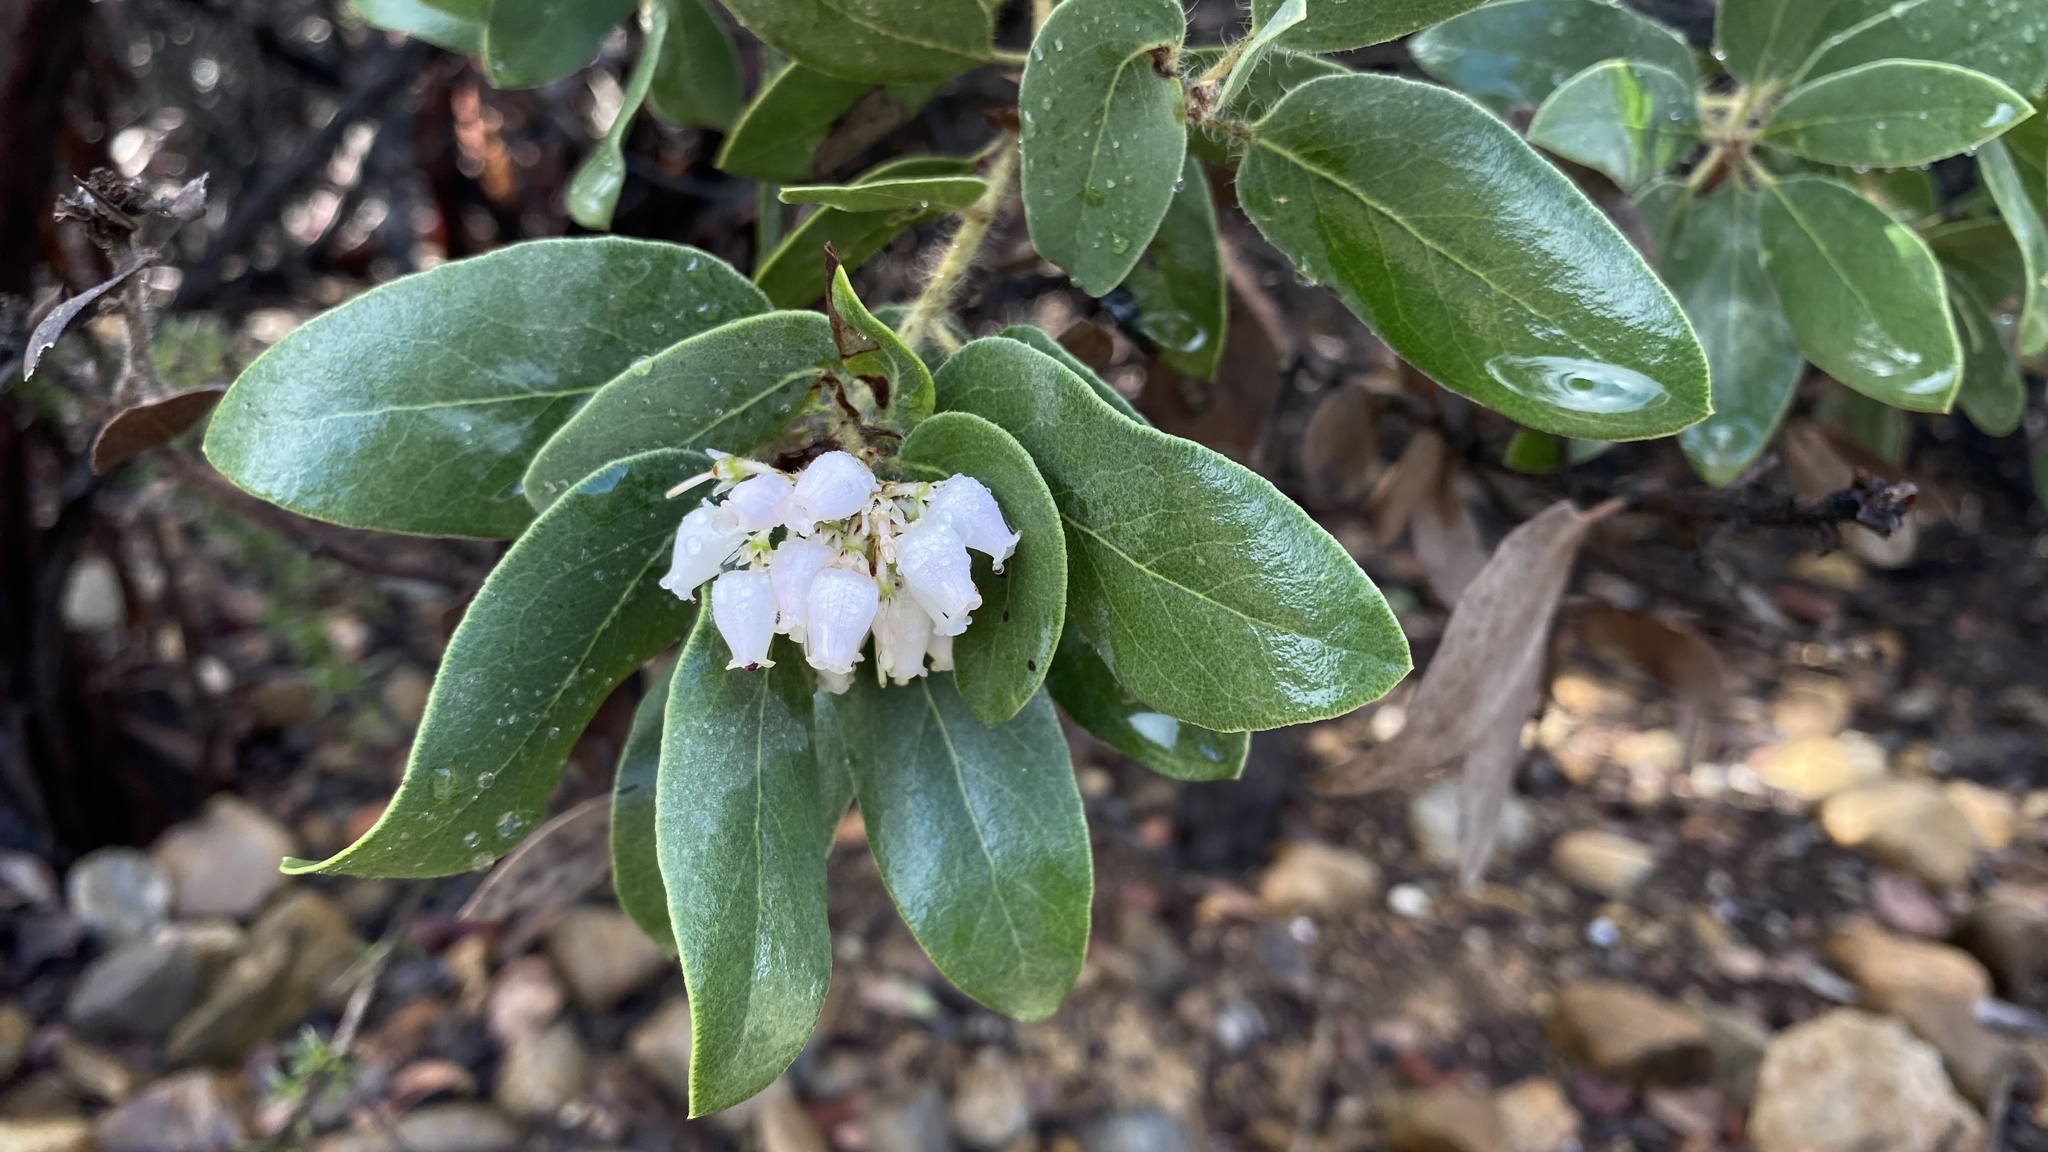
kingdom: Plantae
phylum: Tracheophyta
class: Magnoliopsida
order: Ericales
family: Ericaceae
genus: Arctostaphylos
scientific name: Arctostaphylos glandulosa
